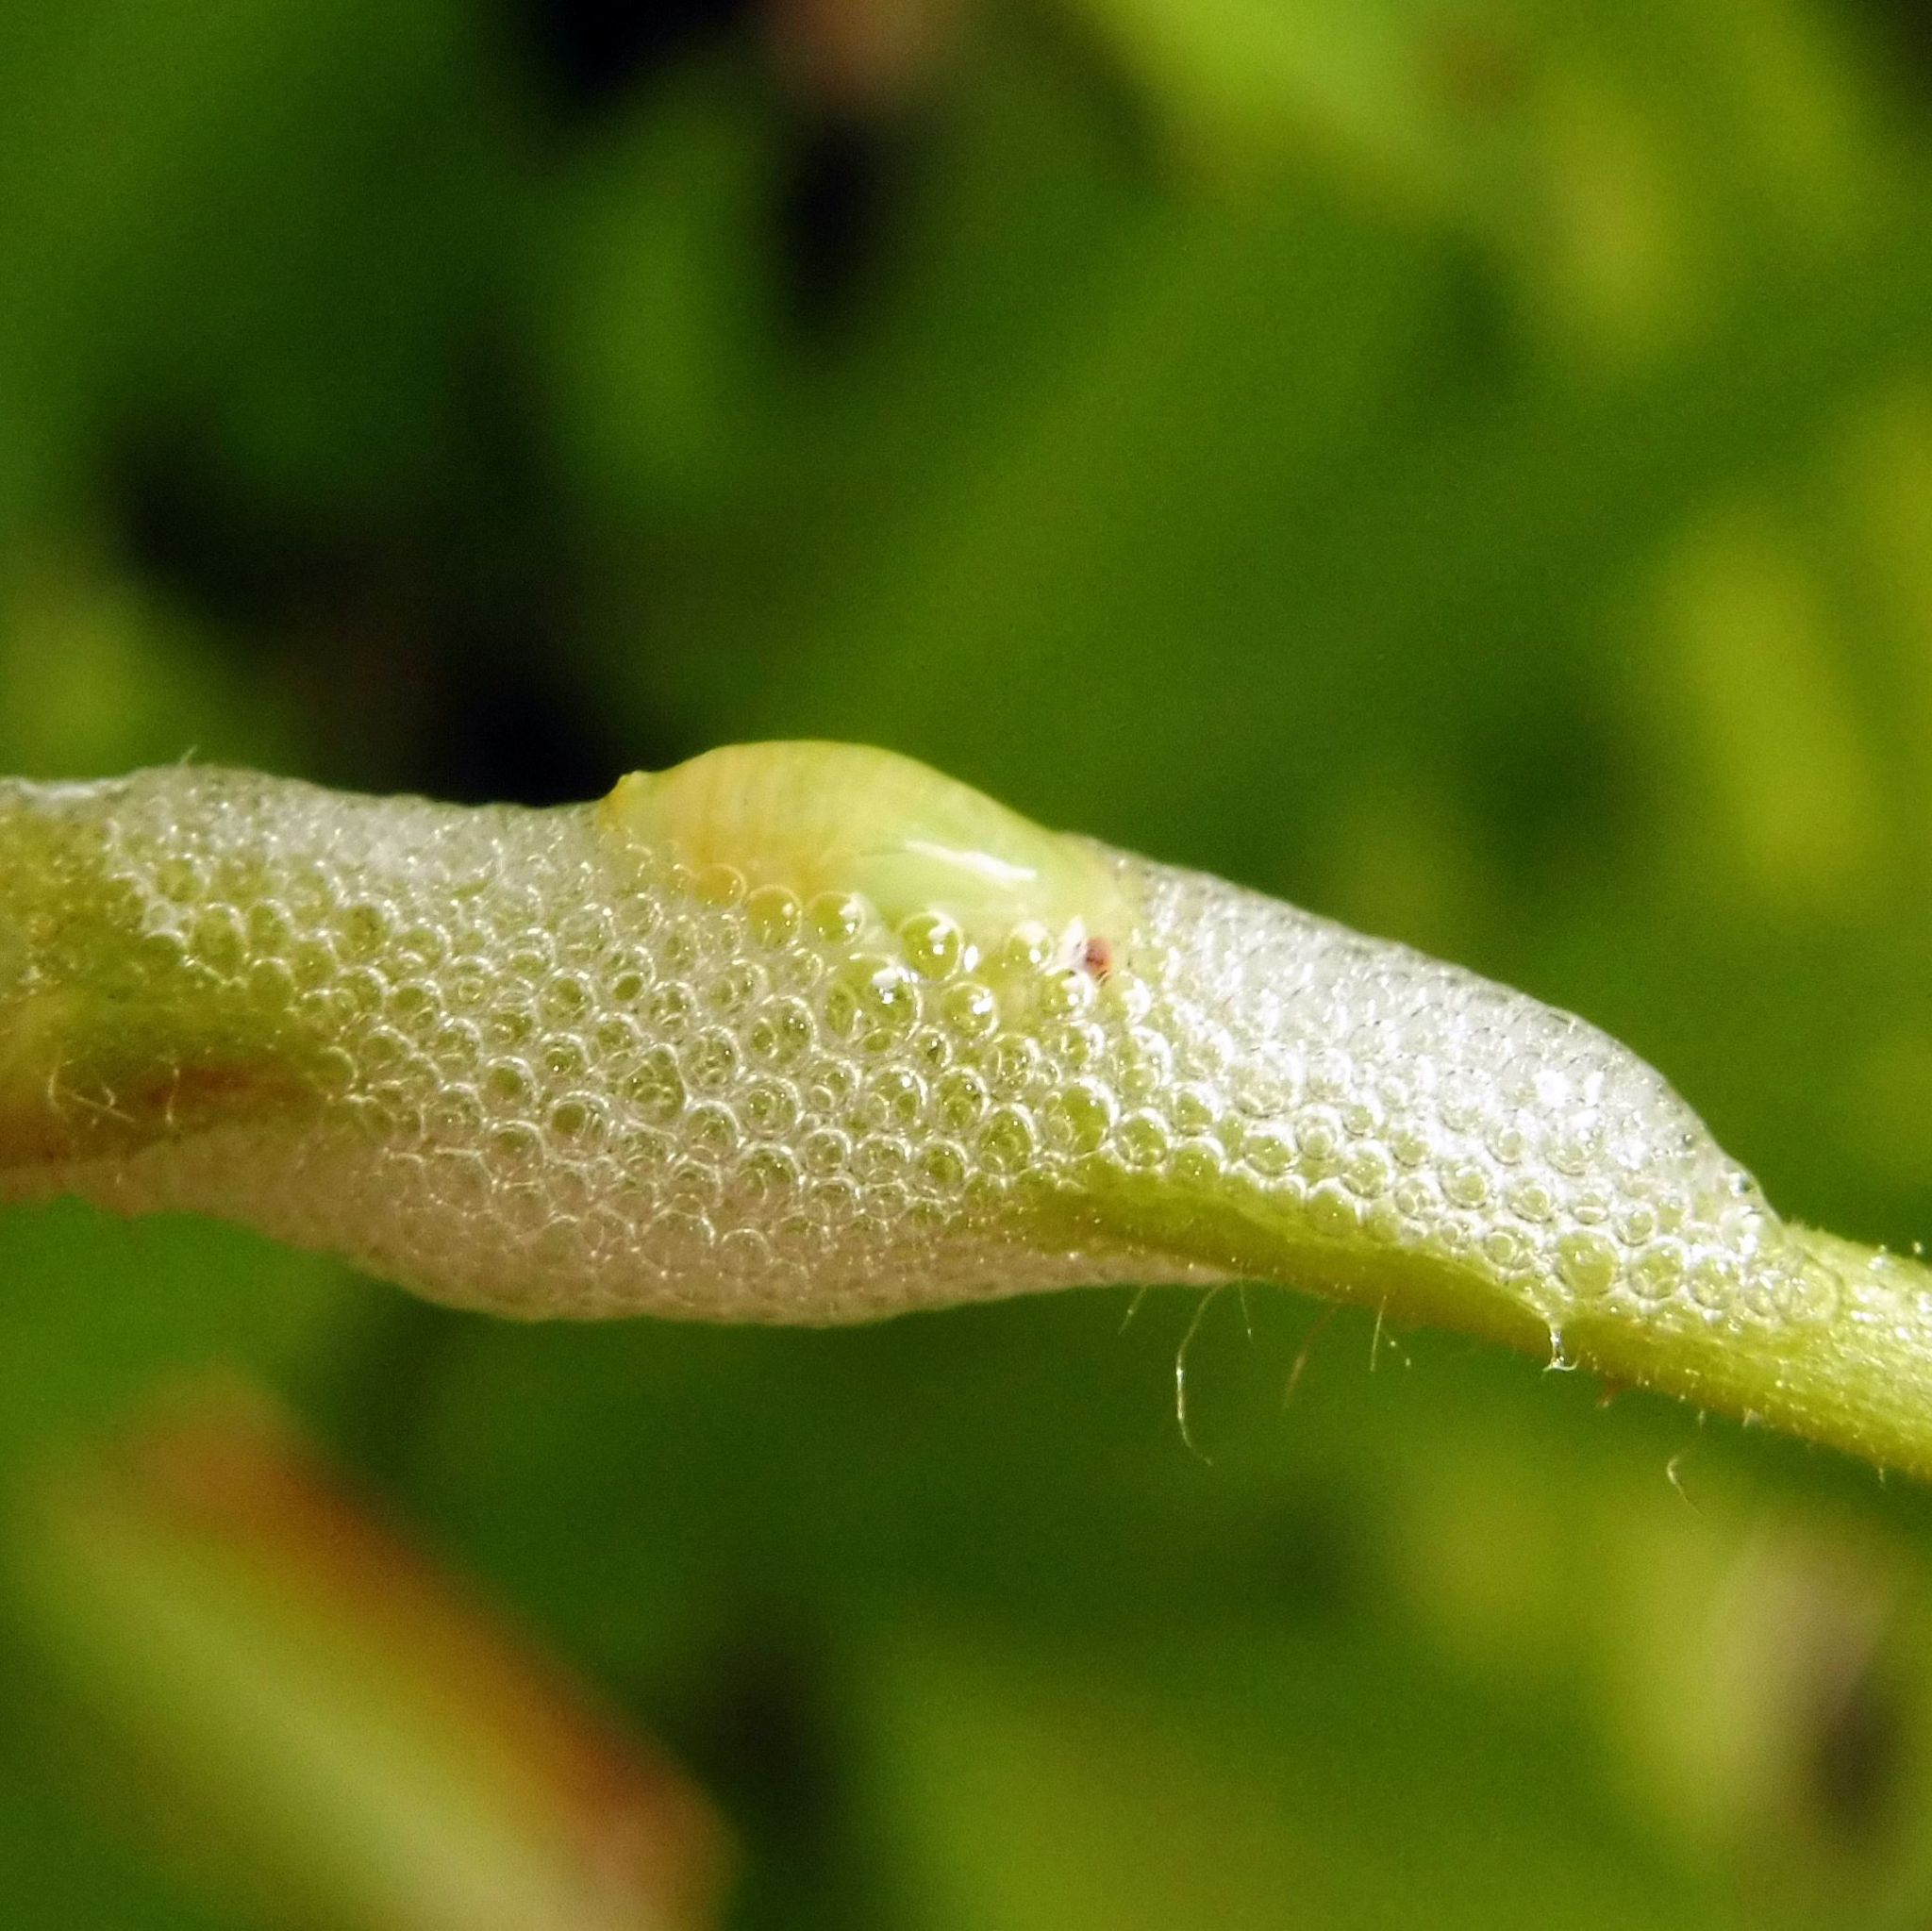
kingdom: Animalia
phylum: Arthropoda
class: Insecta
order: Hemiptera
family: Aphrophoridae
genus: Philaenus
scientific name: Philaenus spumarius
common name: Meadow spittlebug
